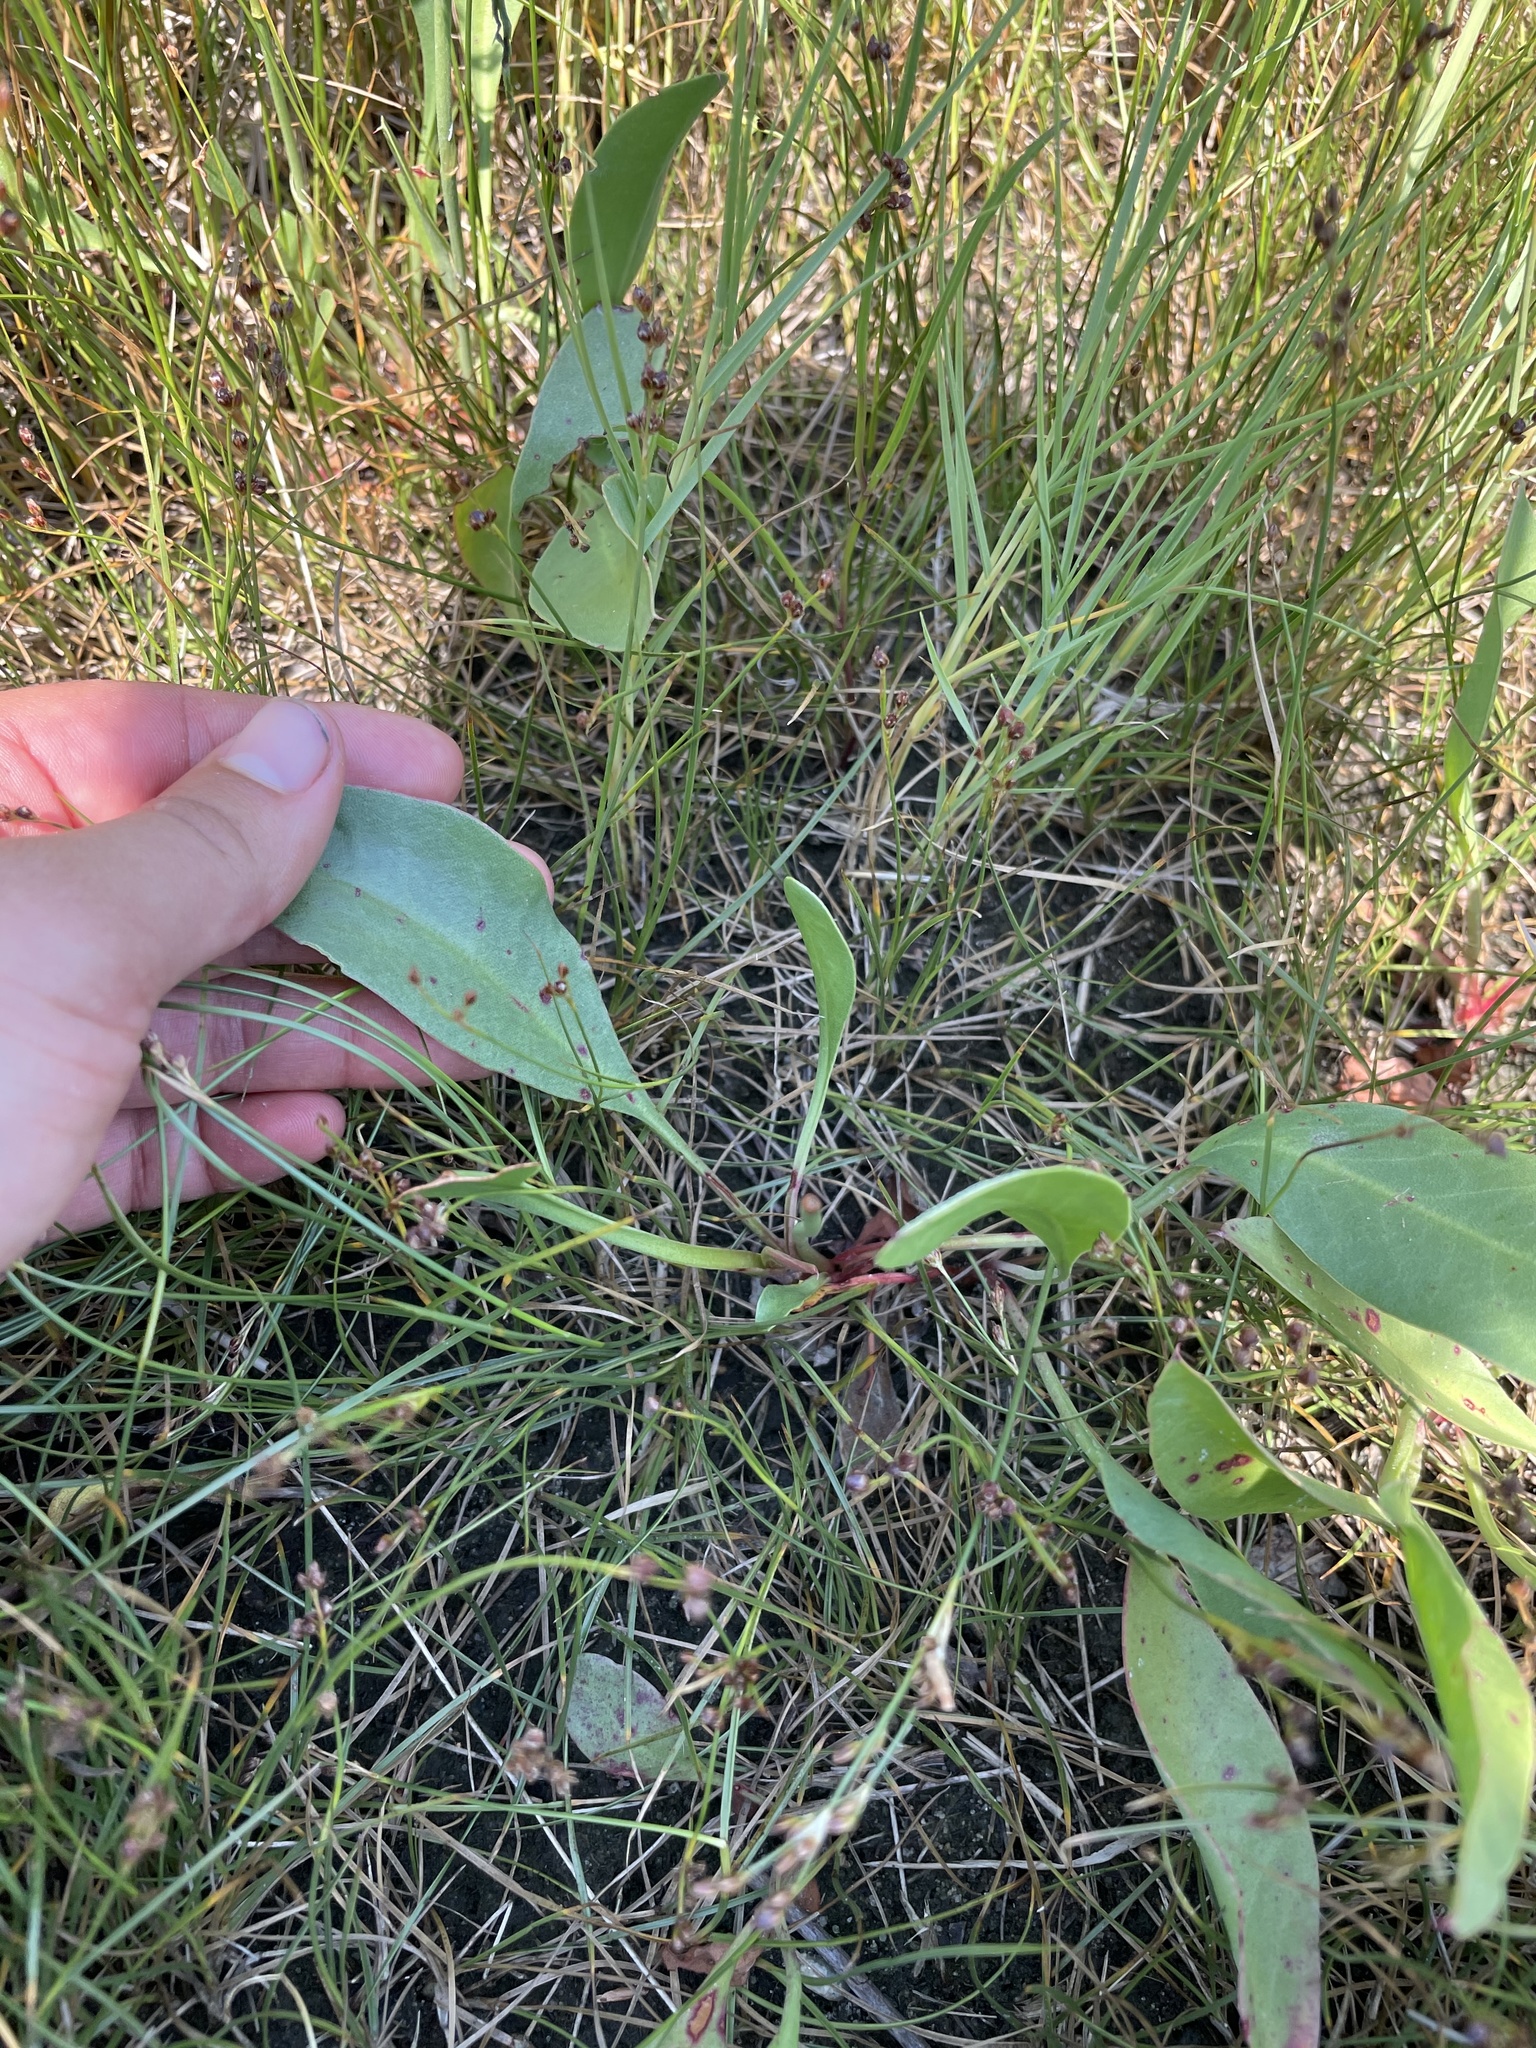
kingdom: Plantae
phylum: Tracheophyta
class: Magnoliopsida
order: Caryophyllales
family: Plumbaginaceae
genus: Limonium
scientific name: Limonium carolinianum
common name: Carolina sea lavender
